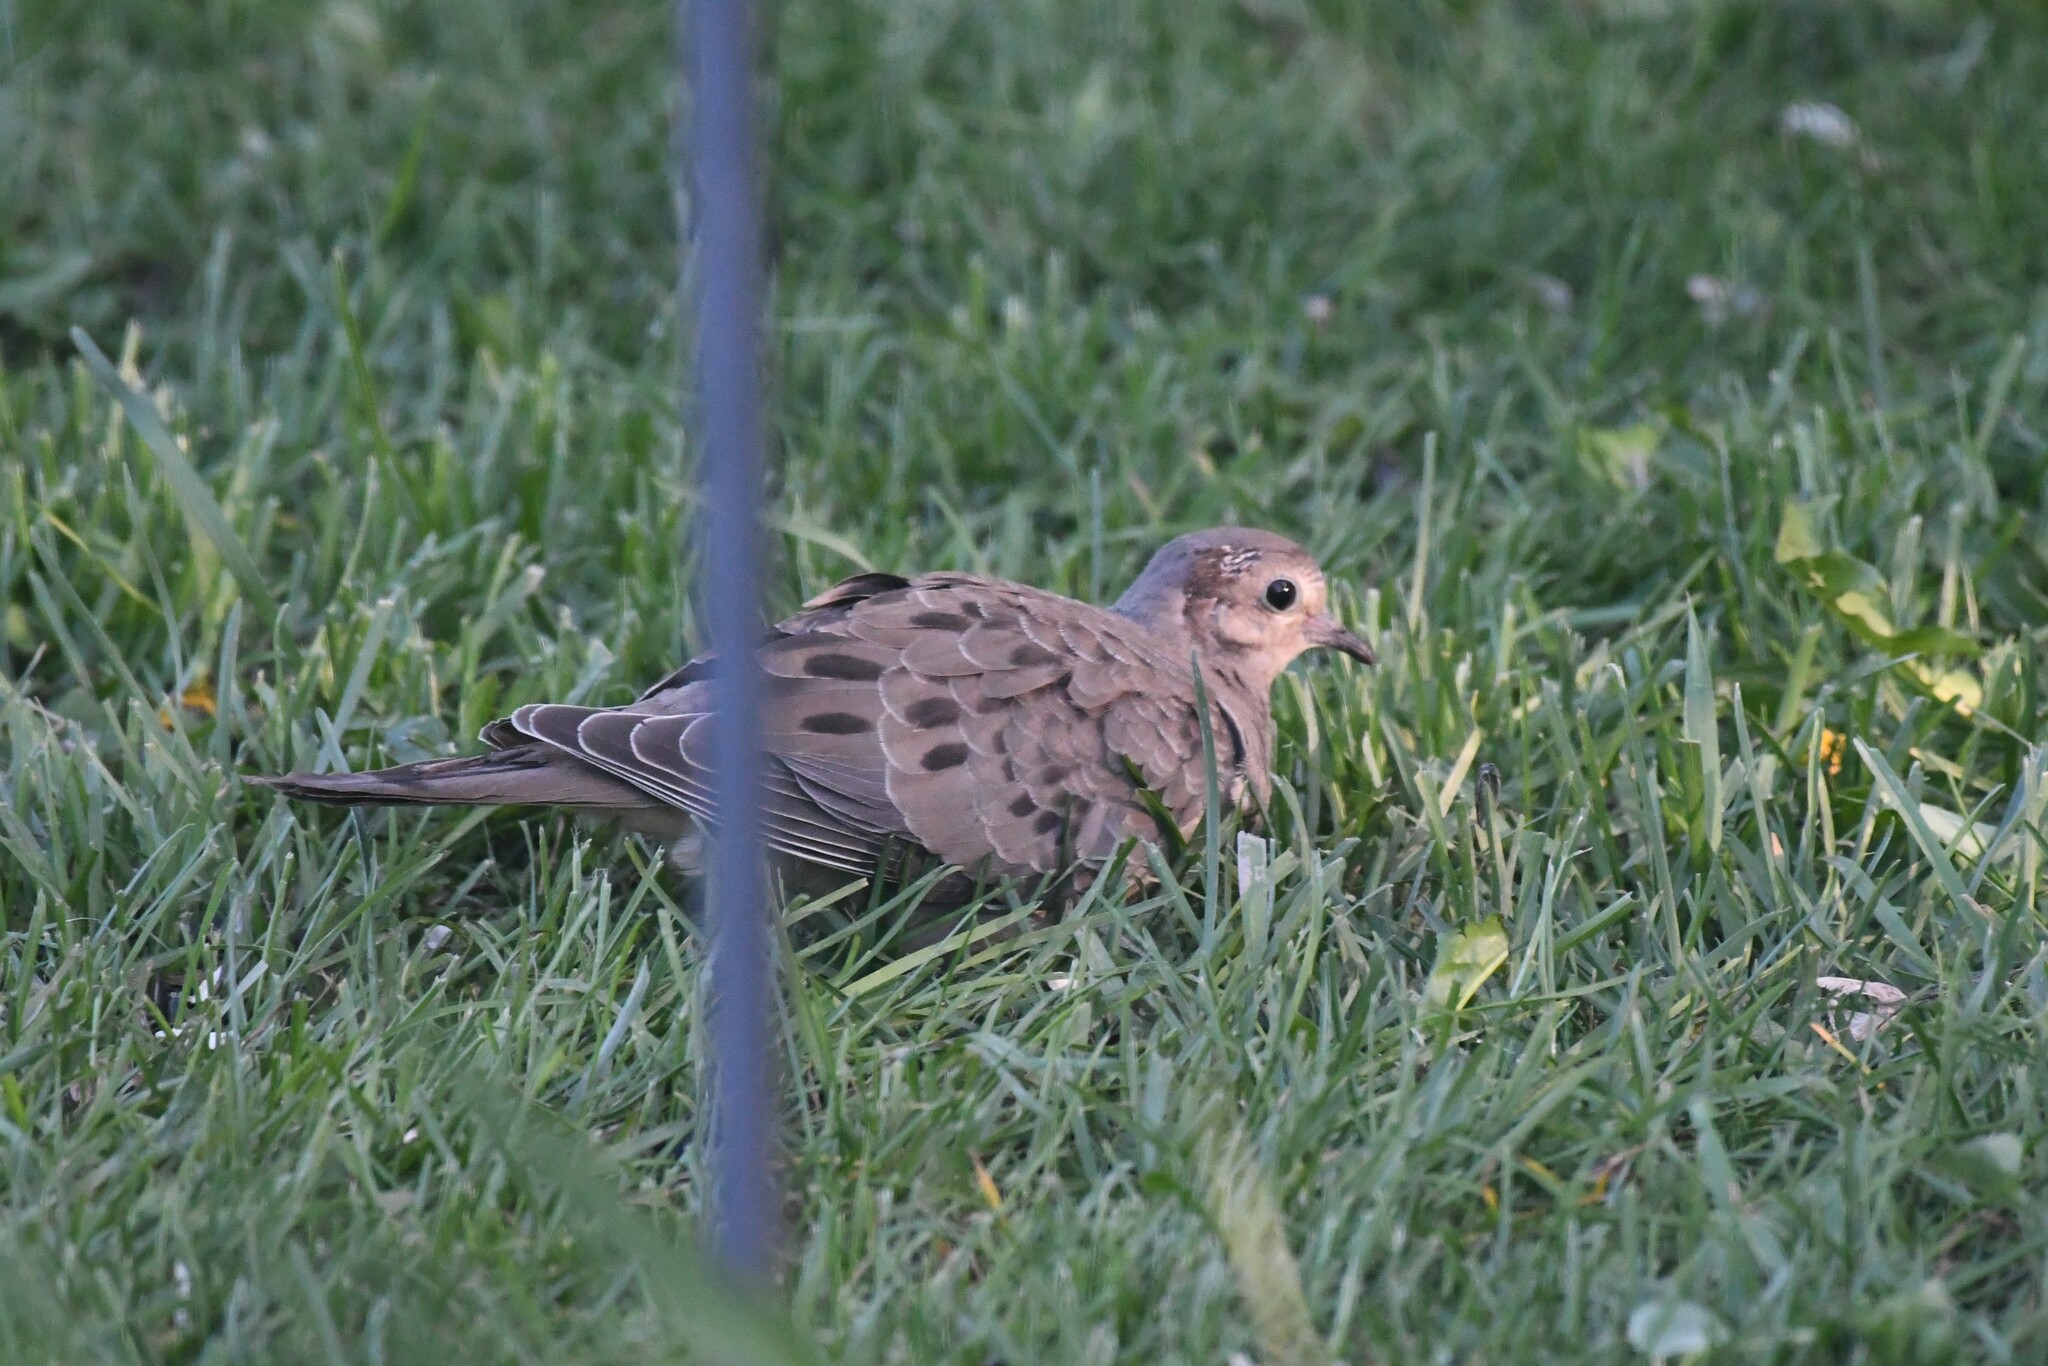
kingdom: Animalia
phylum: Chordata
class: Aves
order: Columbiformes
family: Columbidae
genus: Zenaida
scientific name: Zenaida macroura
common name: Mourning dove
